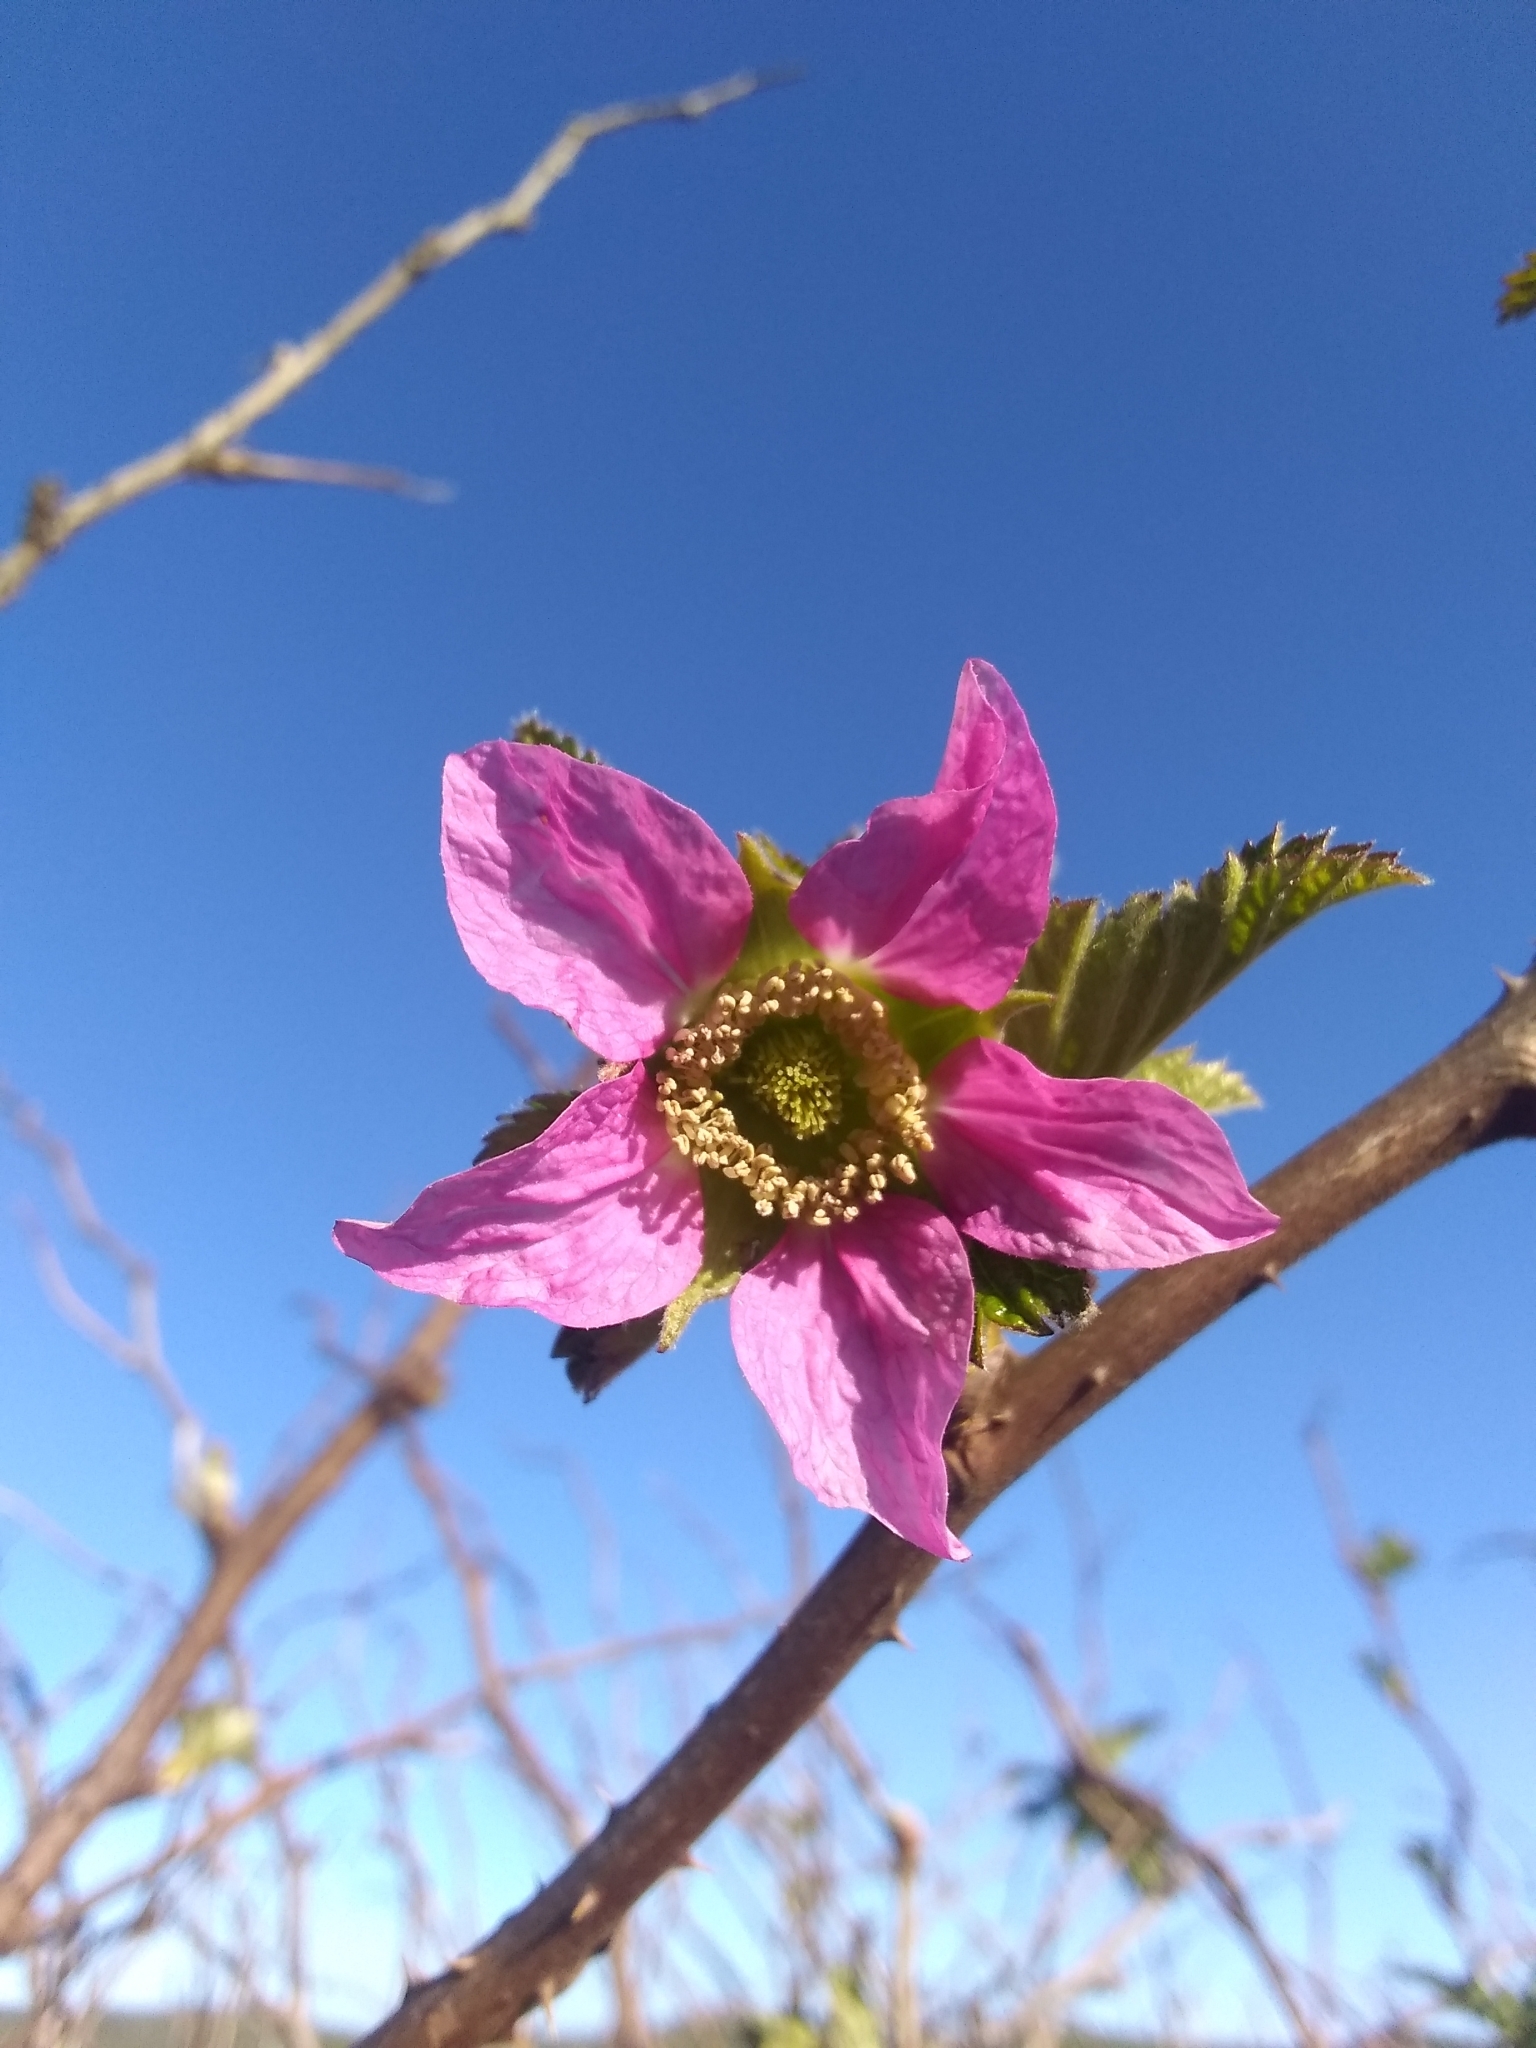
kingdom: Plantae
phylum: Tracheophyta
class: Magnoliopsida
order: Rosales
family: Rosaceae
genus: Rubus
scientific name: Rubus spectabilis
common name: Salmonberry
